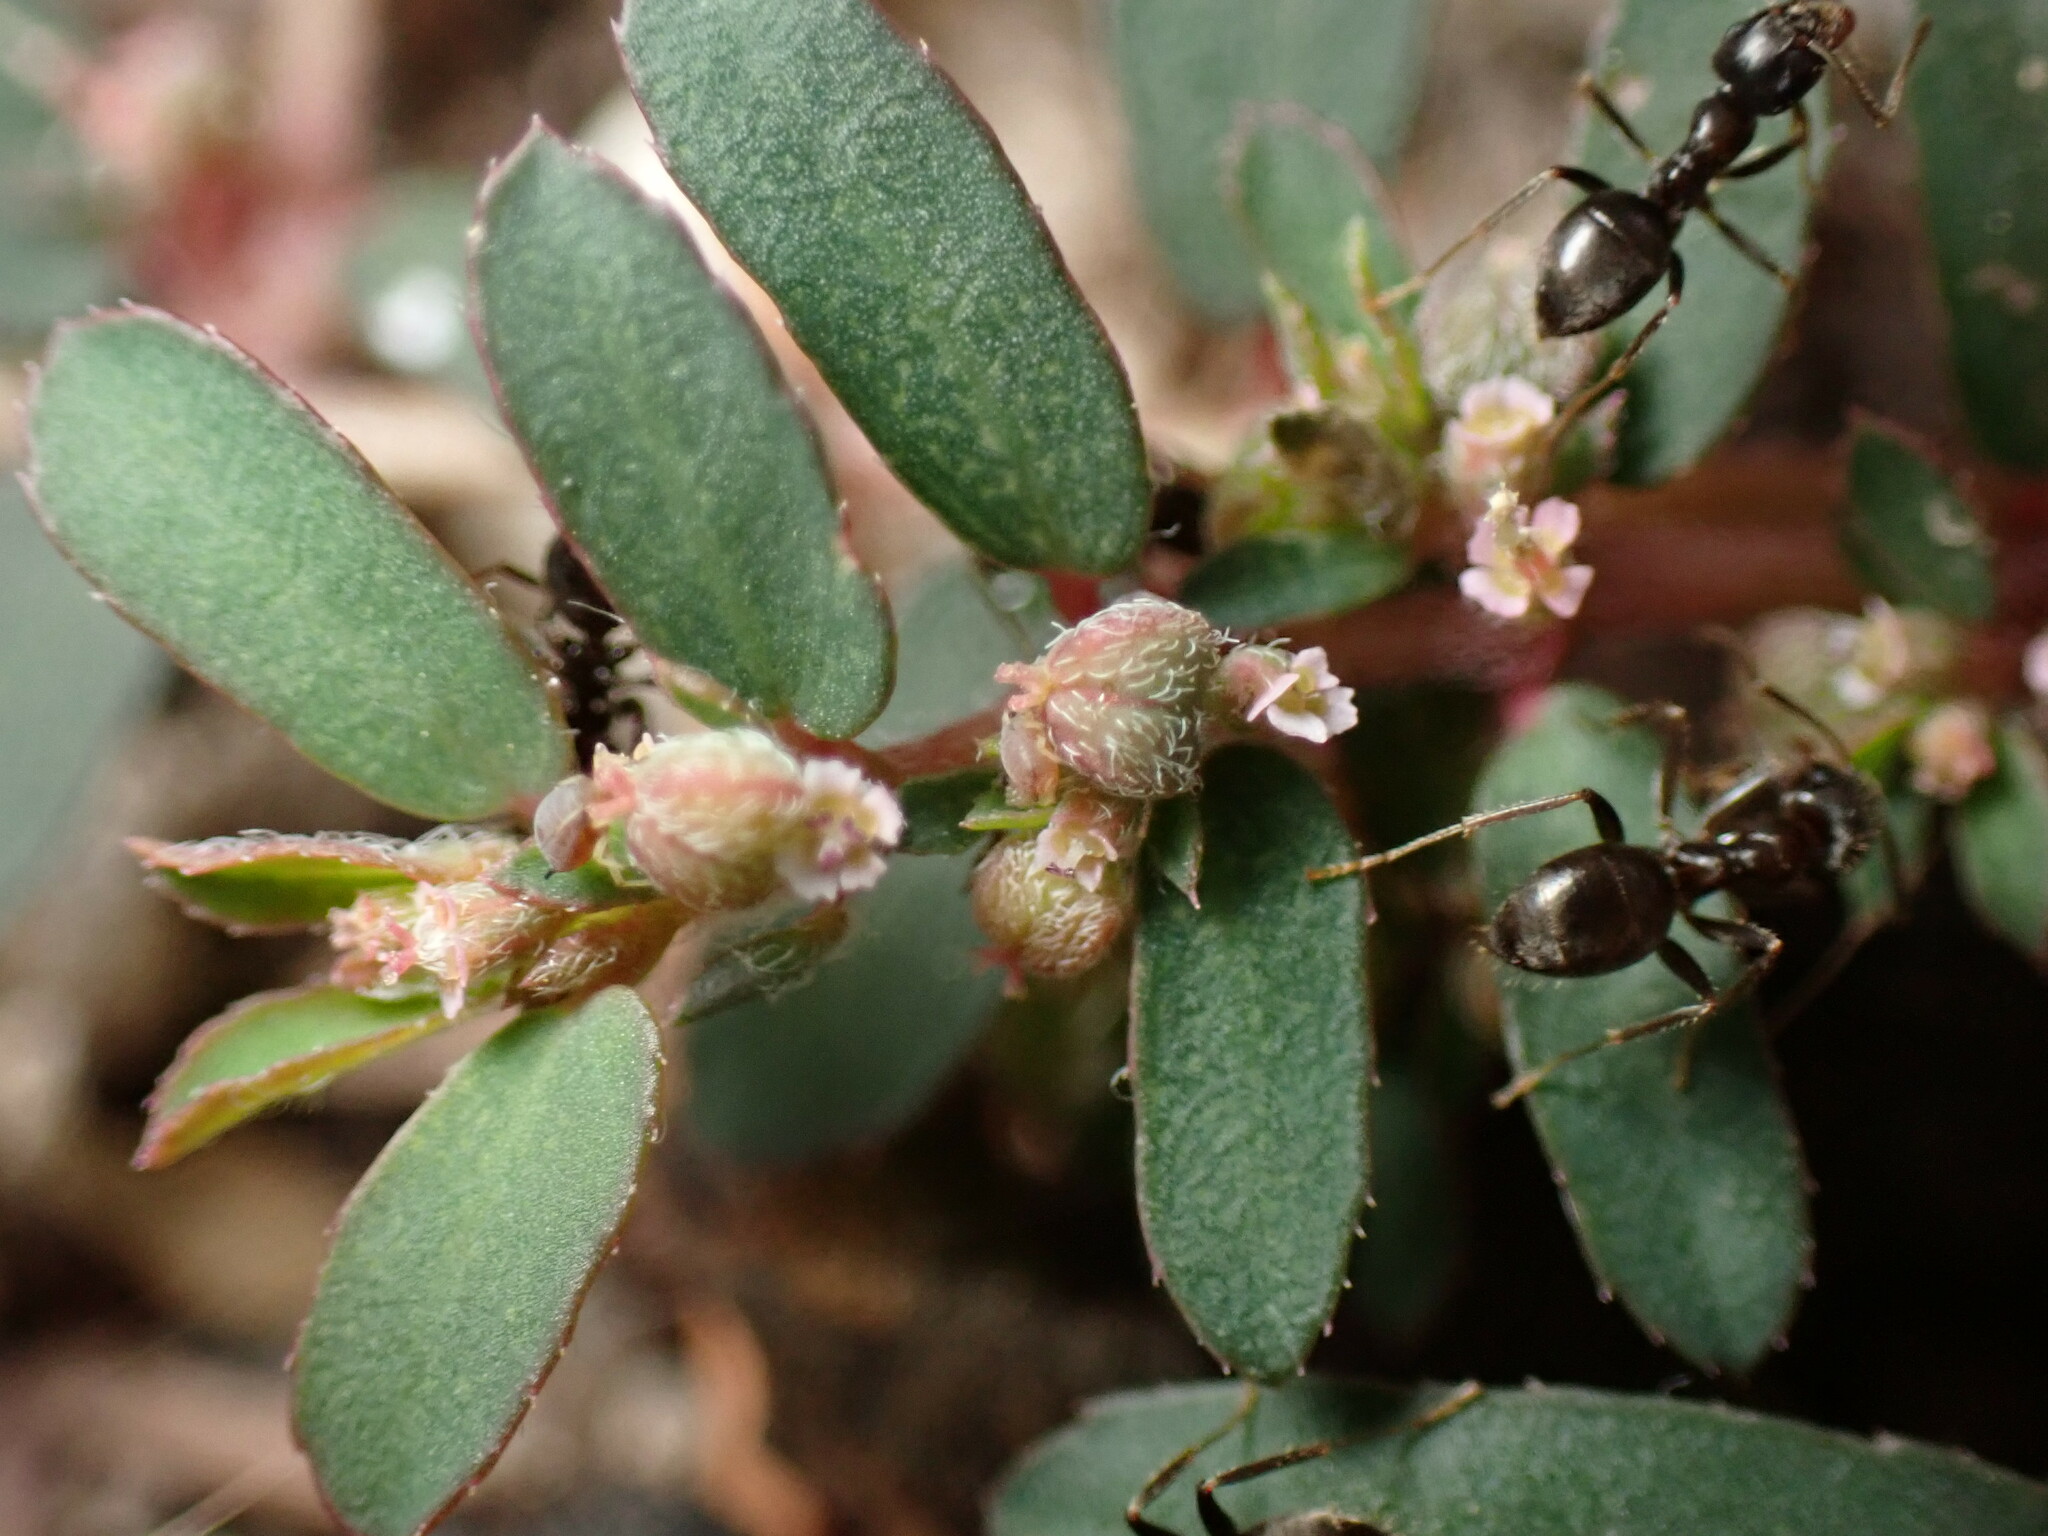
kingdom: Animalia
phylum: Arthropoda
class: Insecta
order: Hymenoptera
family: Formicidae
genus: Lasius
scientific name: Lasius niger
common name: Small black ant
